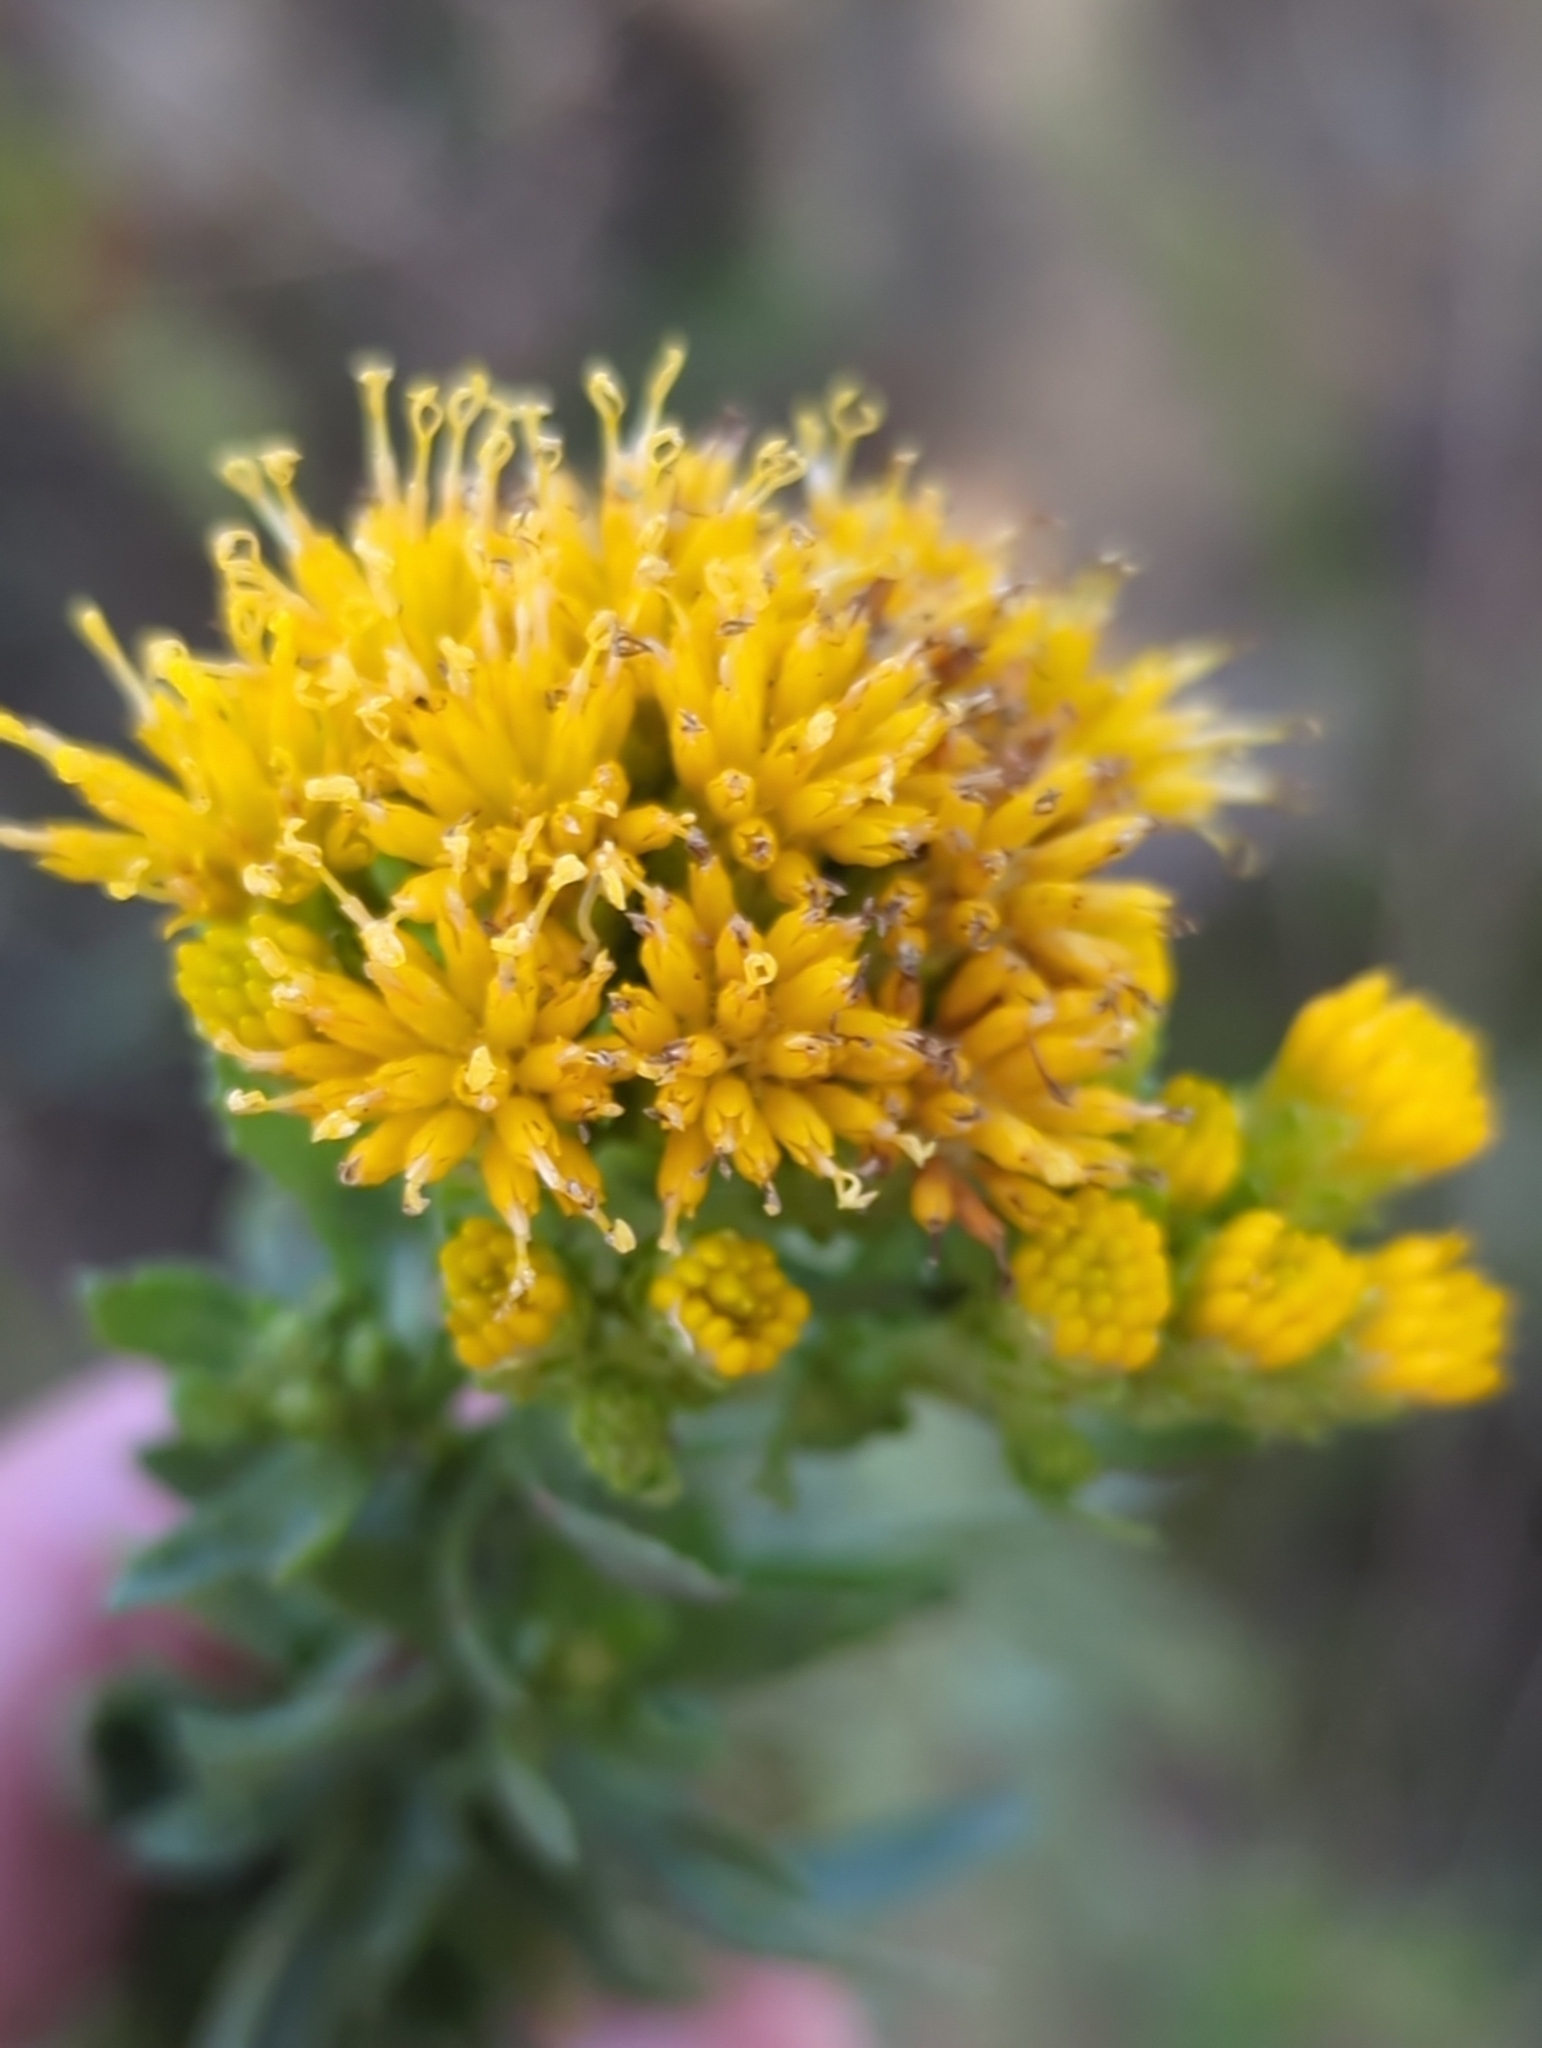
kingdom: Plantae
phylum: Tracheophyta
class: Magnoliopsida
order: Asterales
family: Asteraceae
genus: Isocoma
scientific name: Isocoma menziesii
